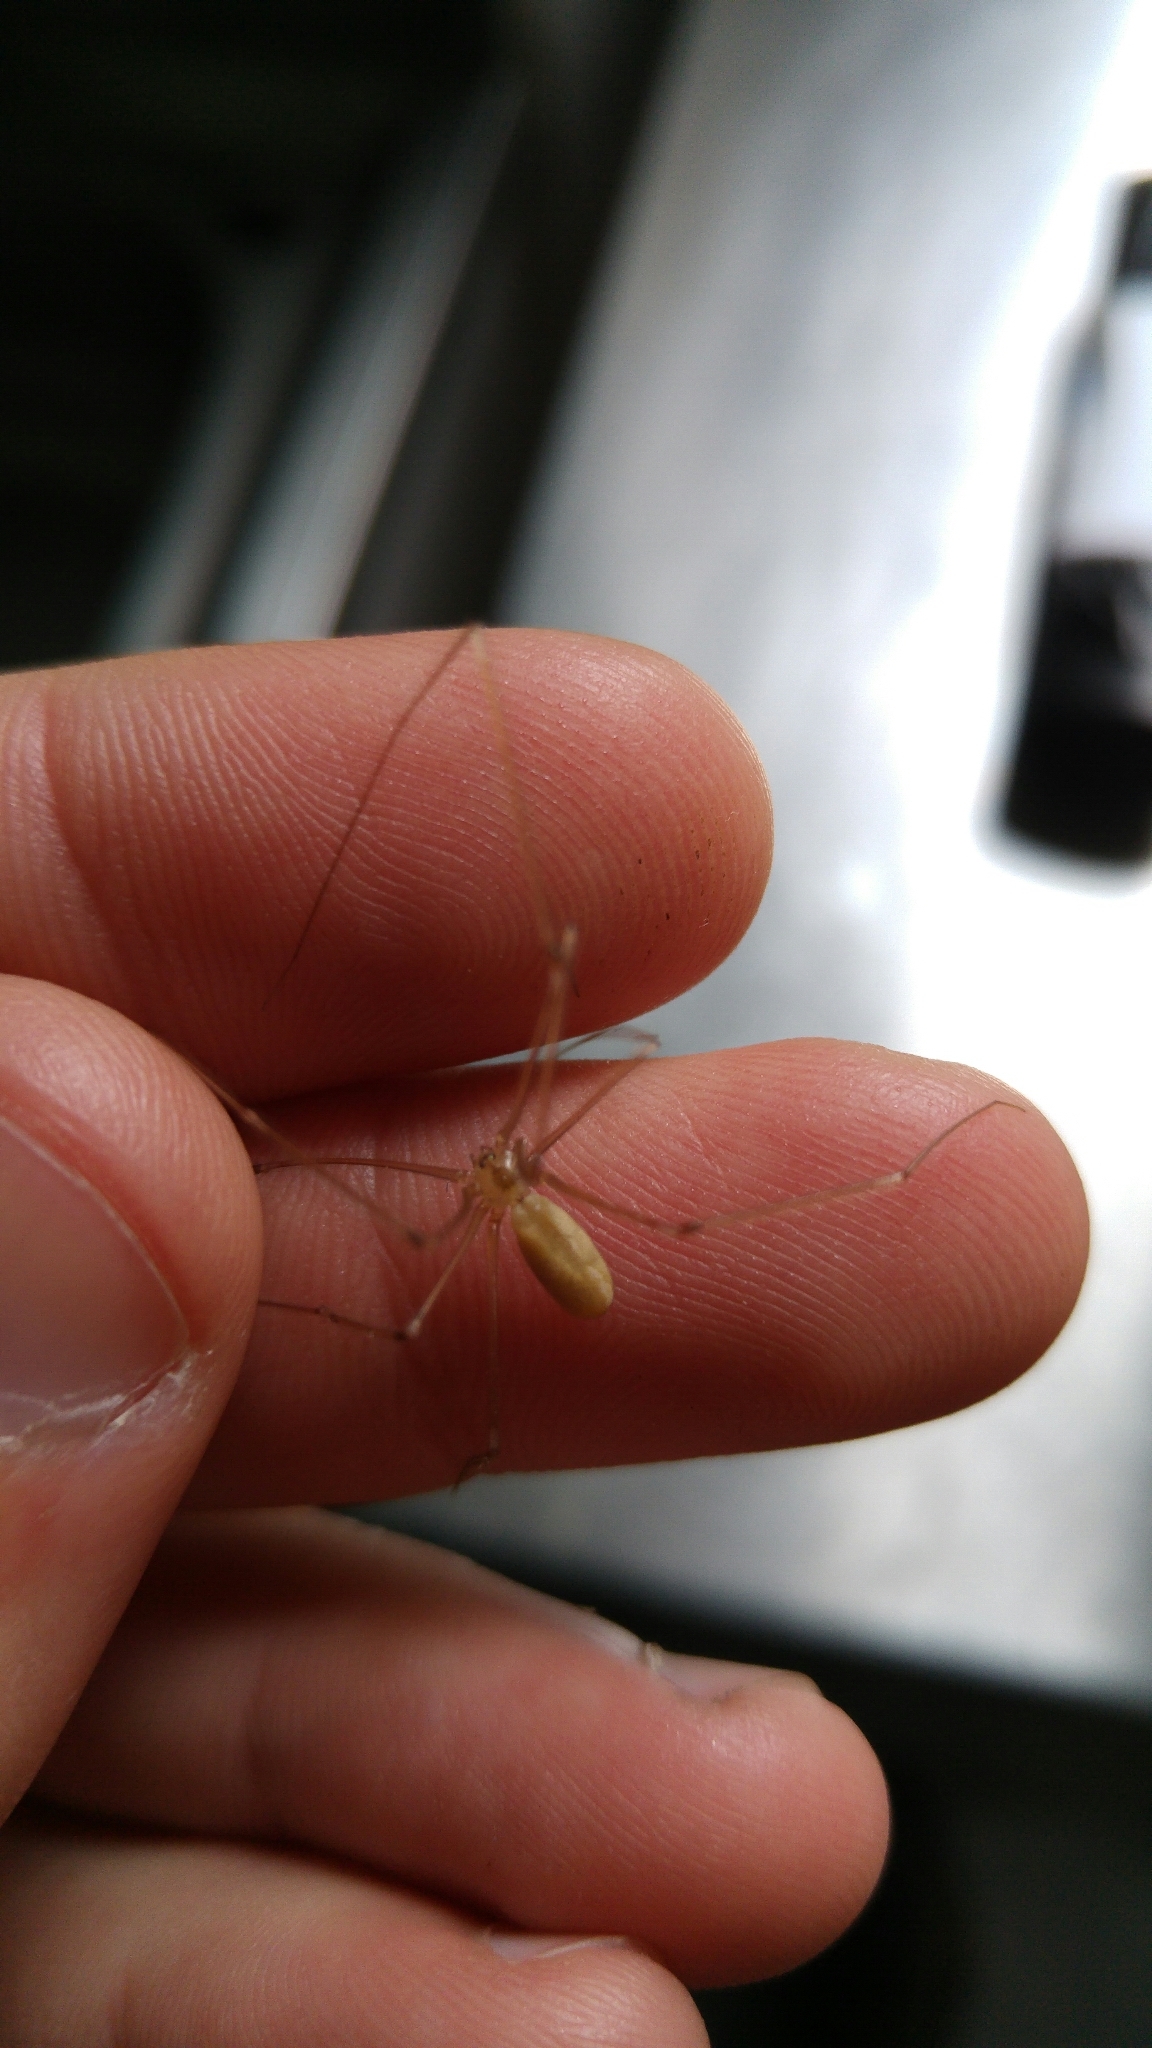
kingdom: Animalia
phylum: Arthropoda
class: Arachnida
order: Araneae
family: Pholcidae
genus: Pholcus
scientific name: Pholcus phalangioides
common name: Longbodied cellar spider
